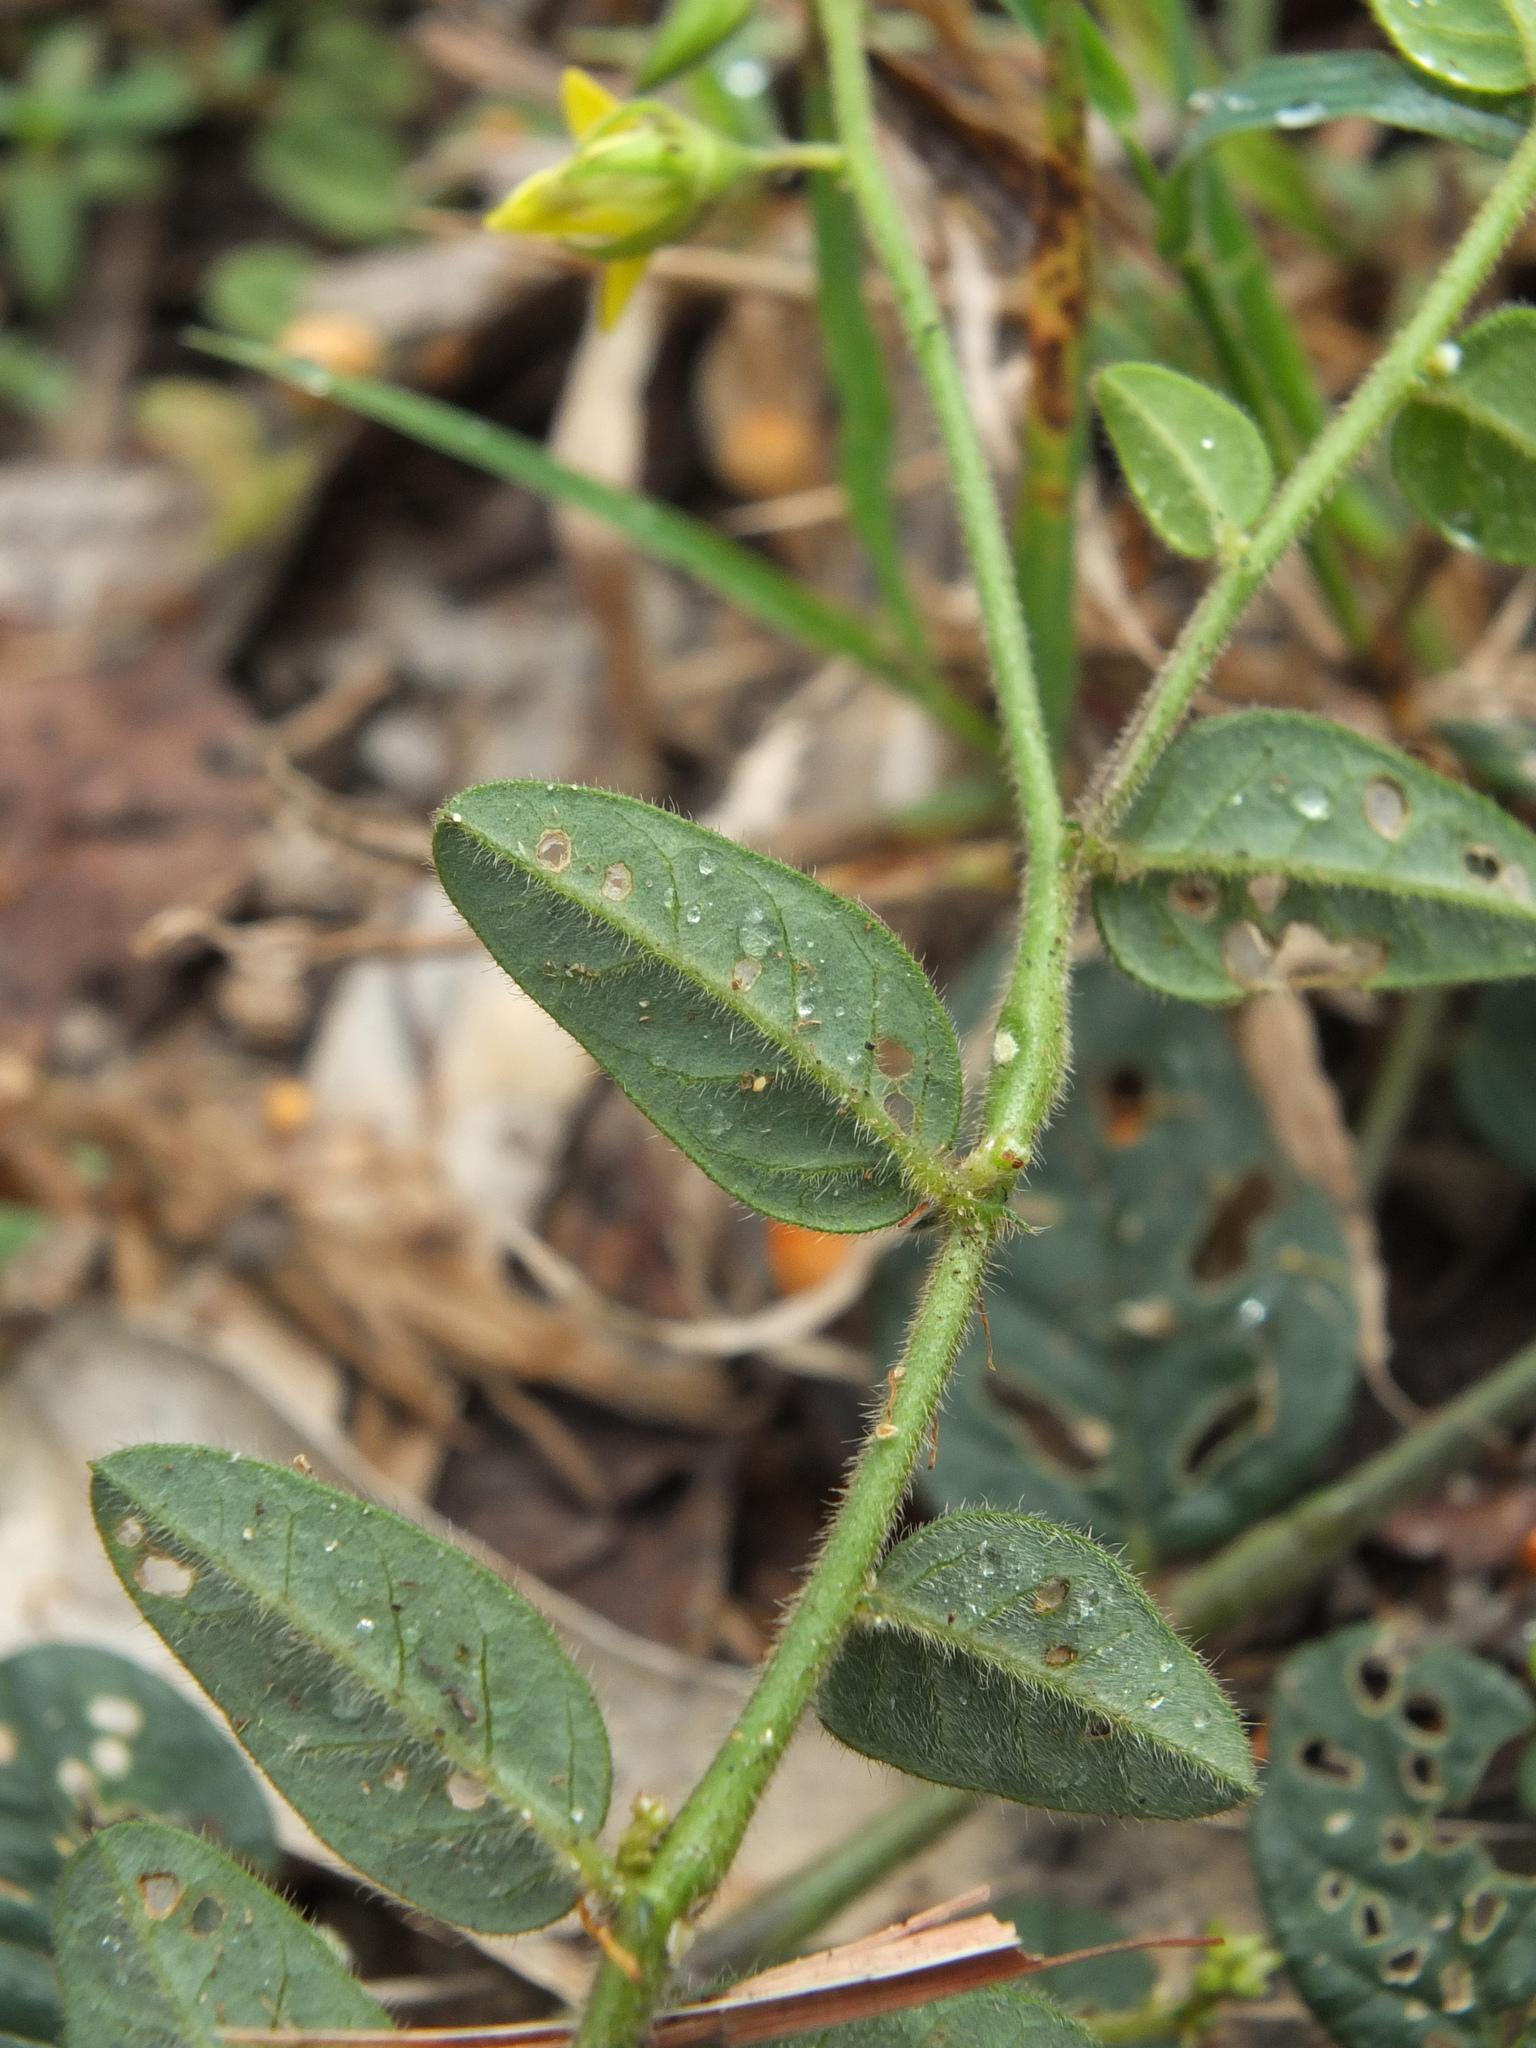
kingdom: Plantae
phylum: Tracheophyta
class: Magnoliopsida
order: Fabales
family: Fabaceae
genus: Crotalaria
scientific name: Crotalaria evolvuloides
